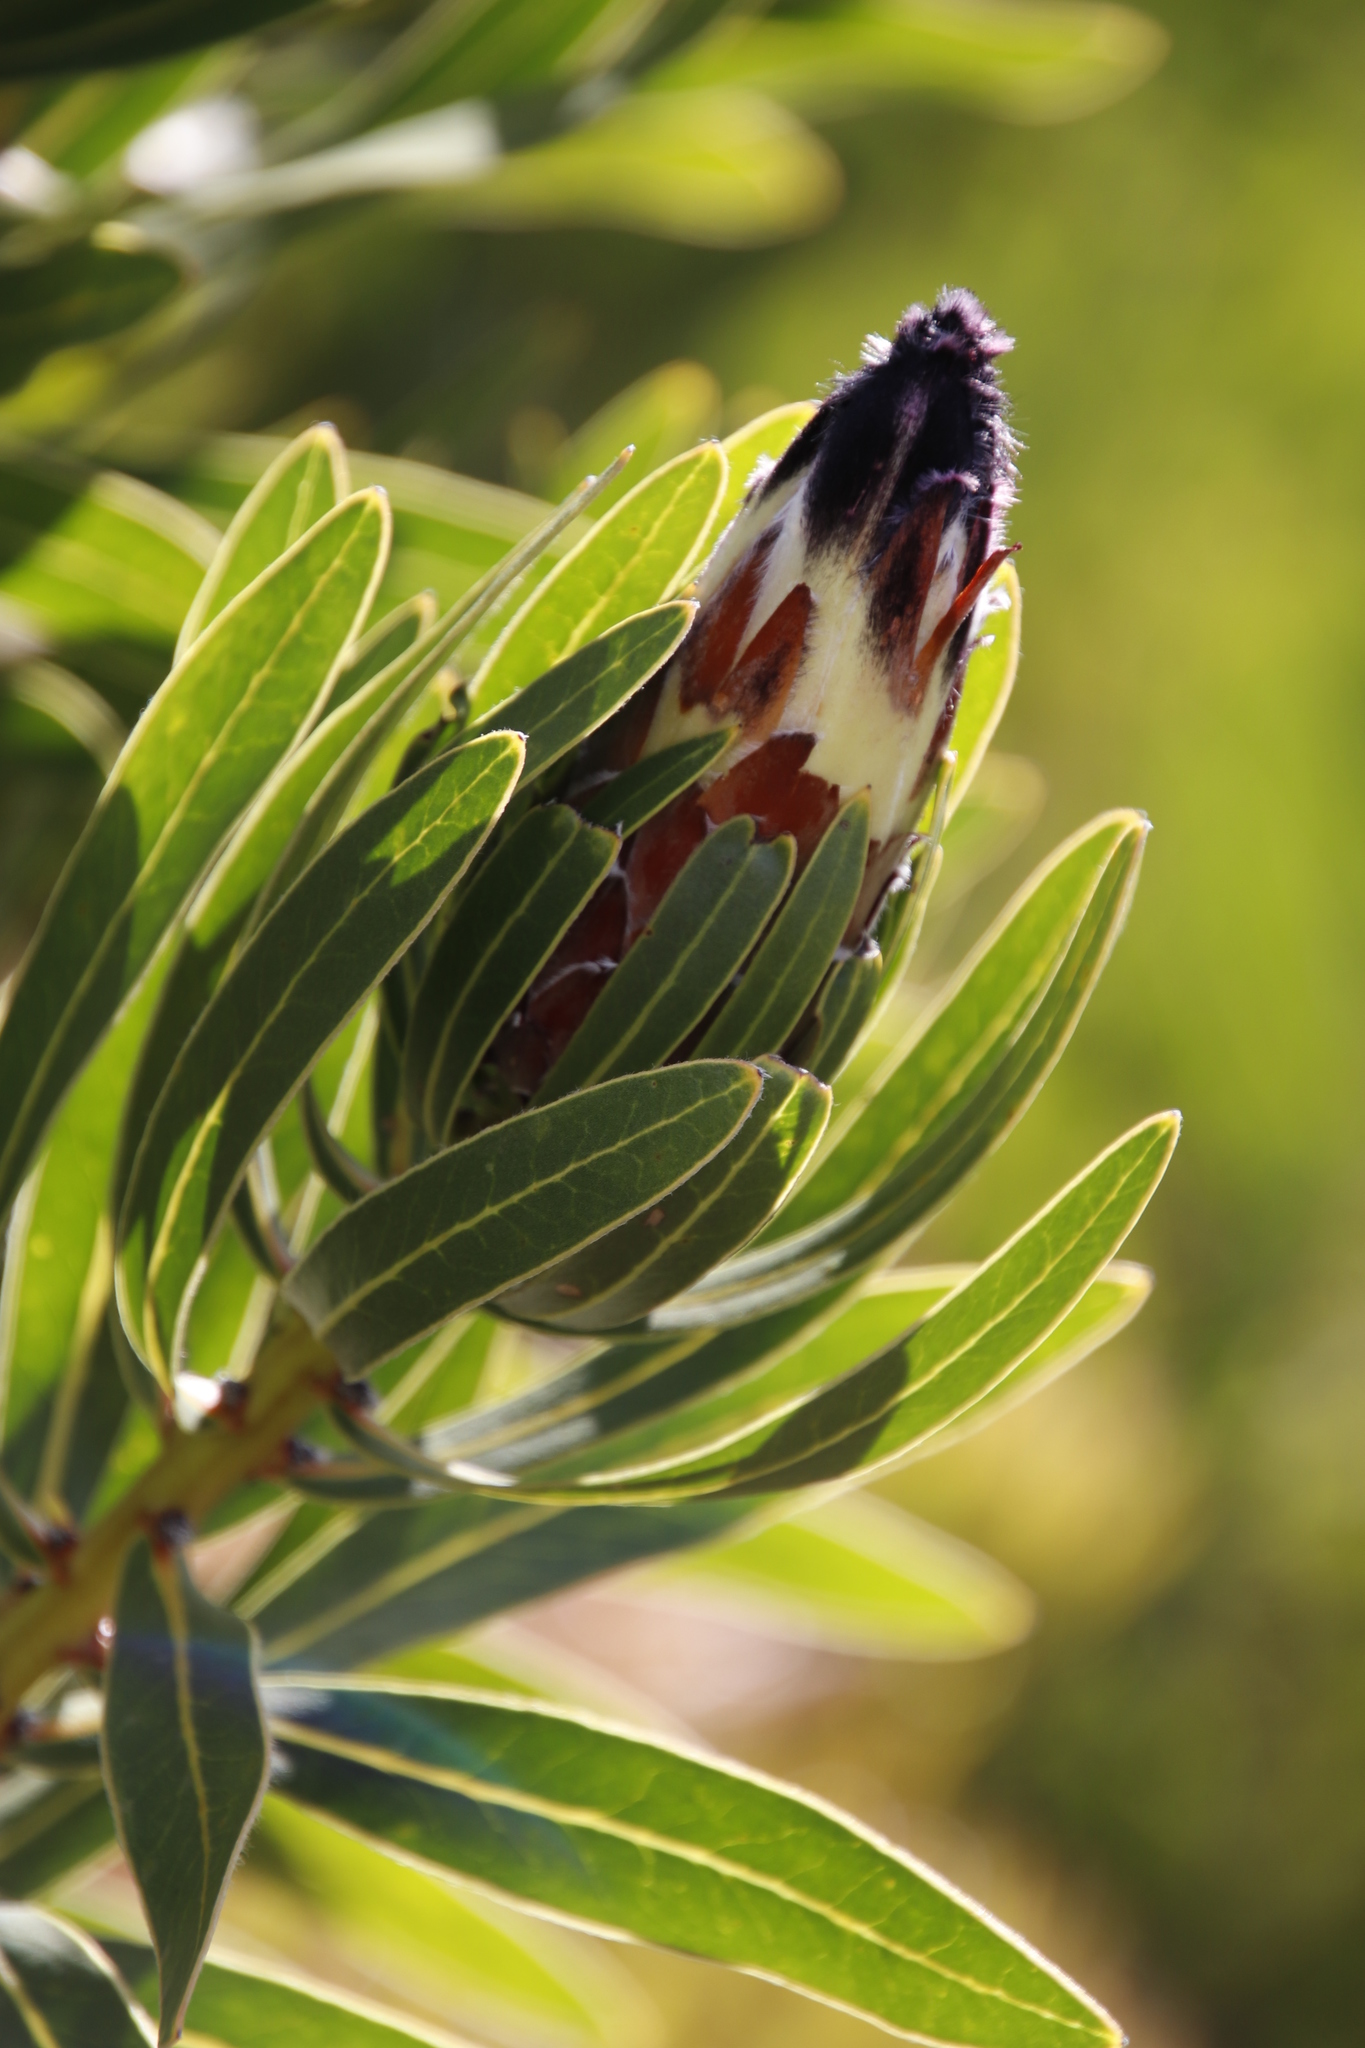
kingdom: Plantae
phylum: Tracheophyta
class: Magnoliopsida
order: Proteales
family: Proteaceae
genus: Protea
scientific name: Protea lepidocarpodendron
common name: Black-bearded protea
